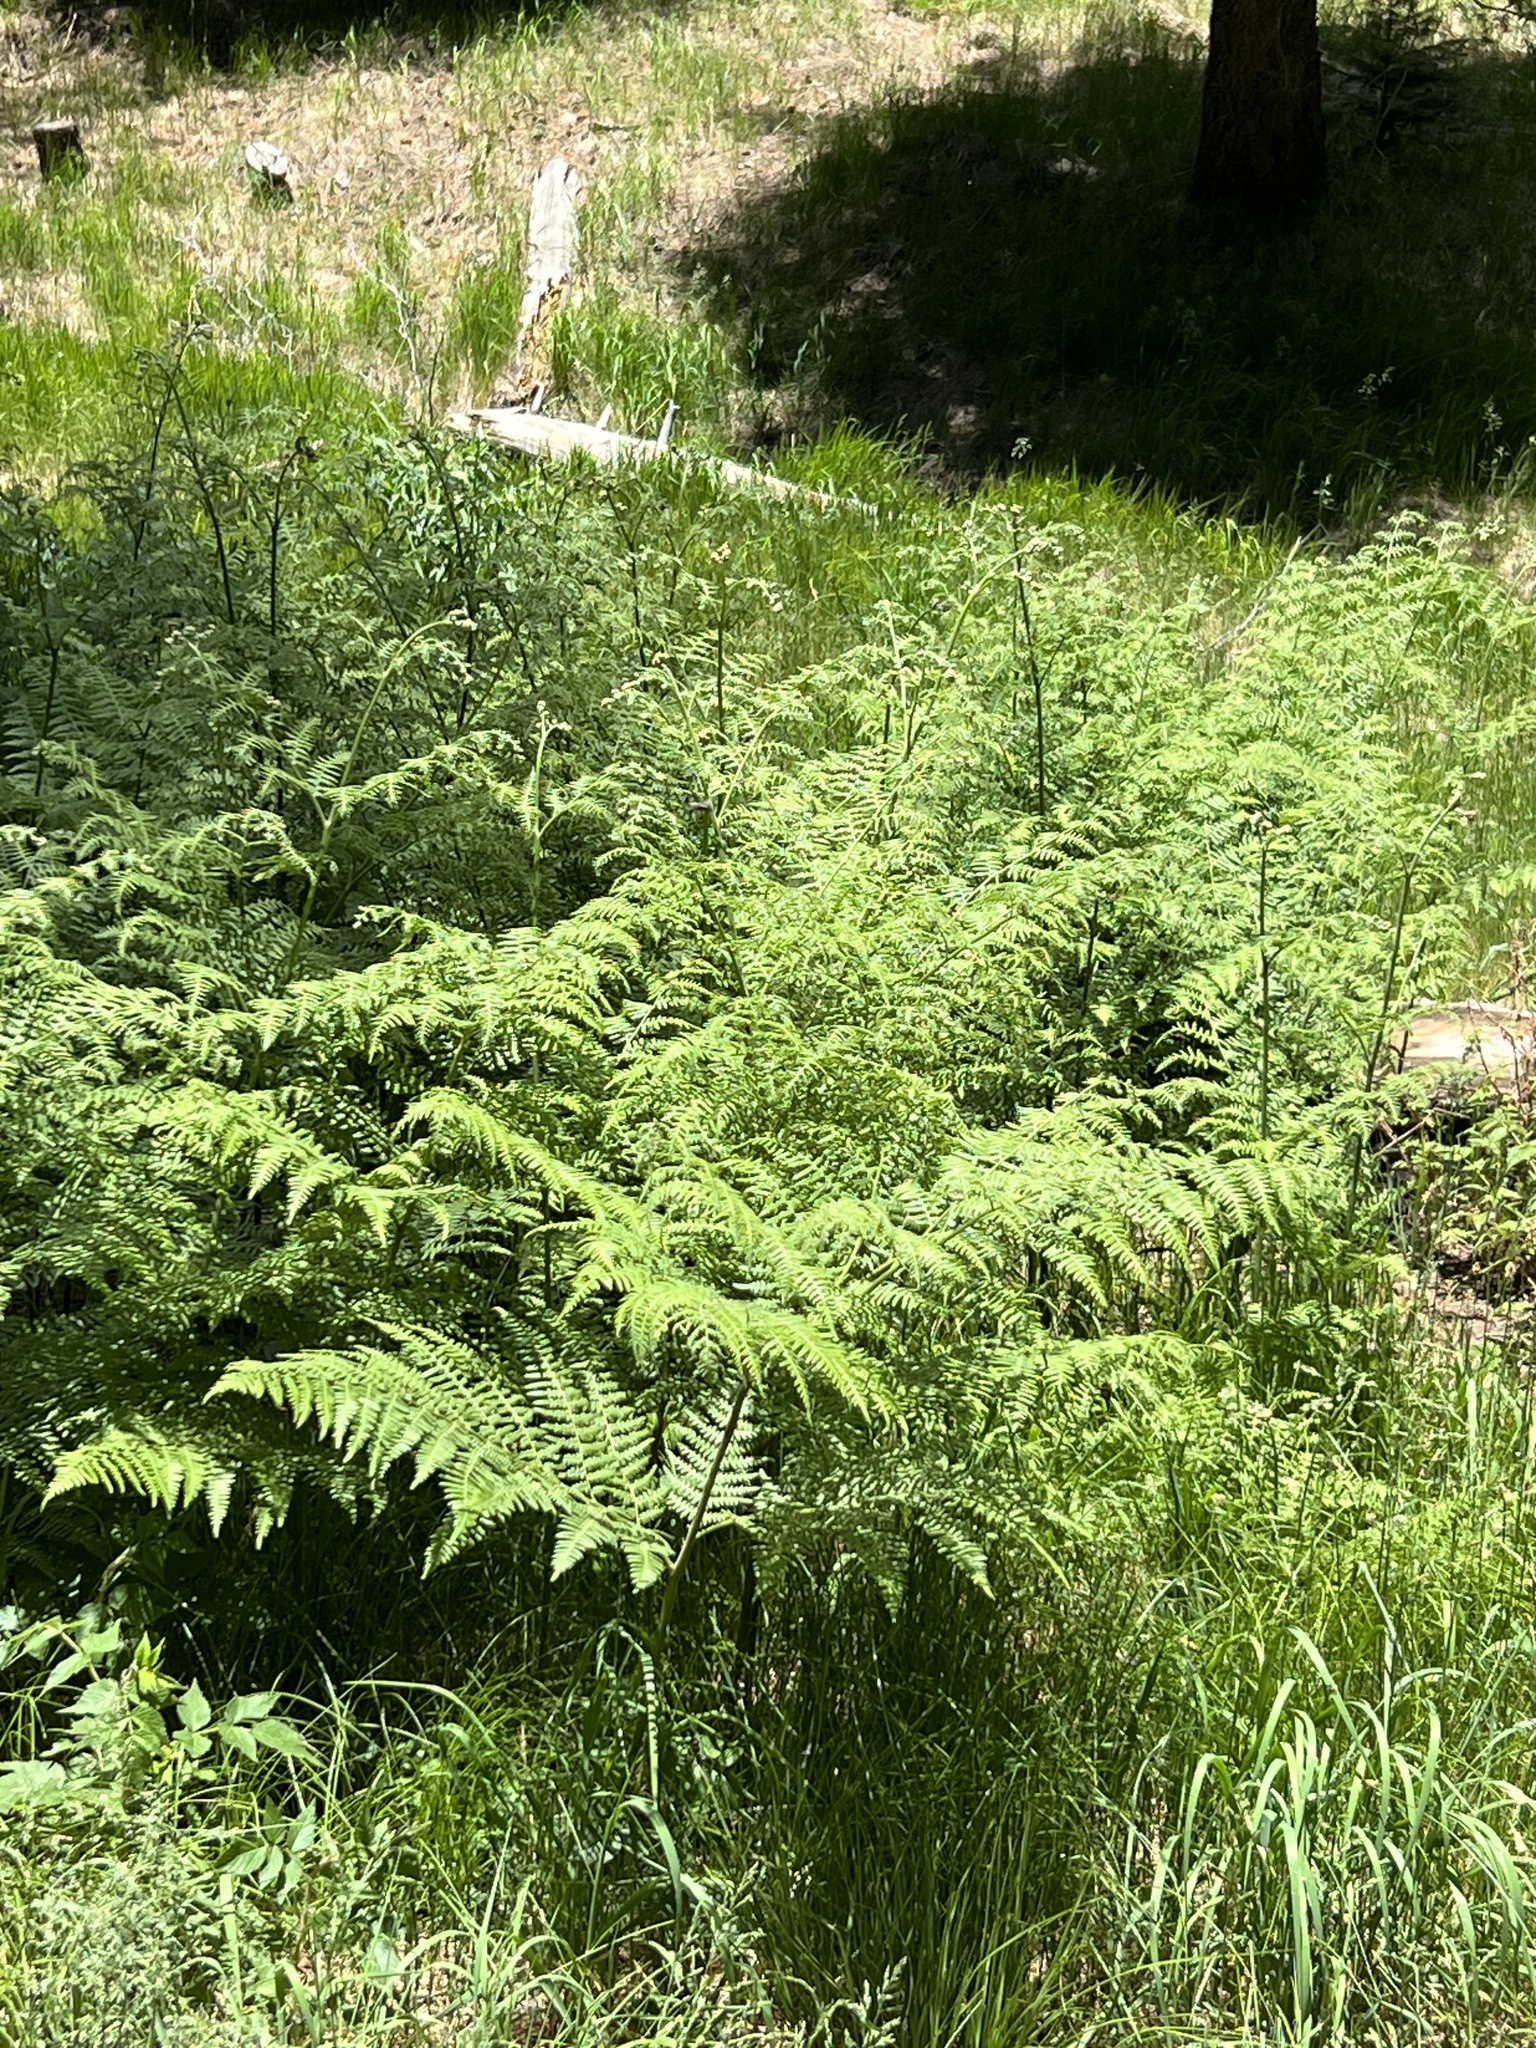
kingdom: Plantae
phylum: Tracheophyta
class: Polypodiopsida
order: Polypodiales
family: Dennstaedtiaceae
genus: Pteridium
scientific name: Pteridium aquilinum
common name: Bracken
